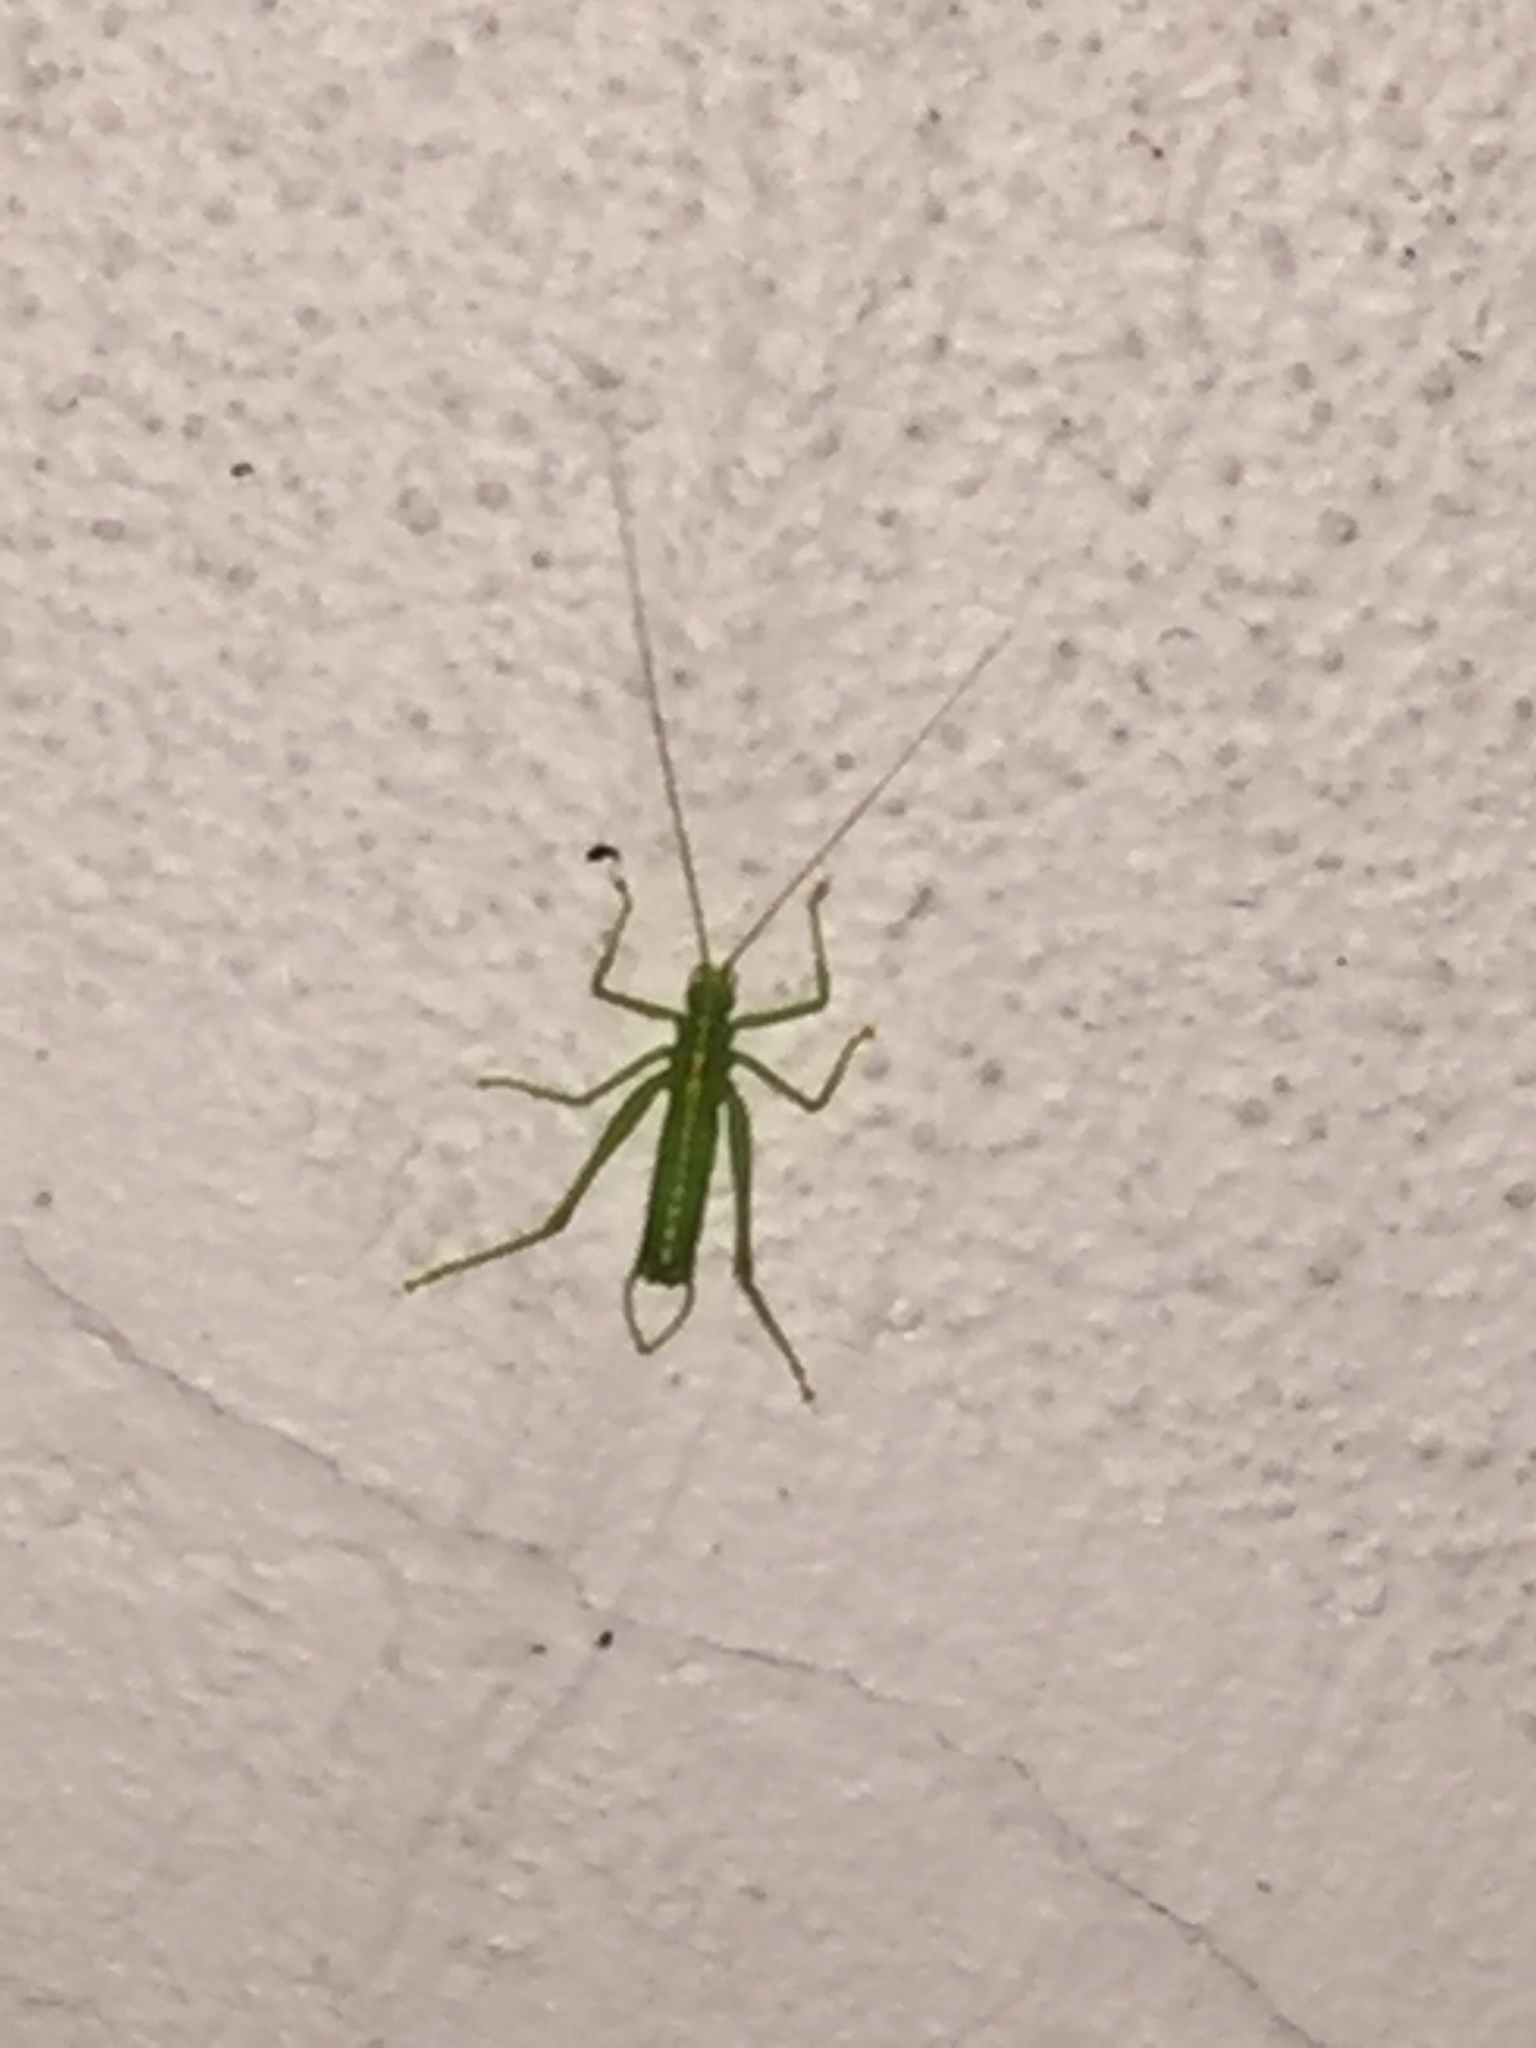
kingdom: Animalia
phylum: Arthropoda
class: Insecta
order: Orthoptera
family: Tettigoniidae
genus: Meconema
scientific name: Meconema meridionale
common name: Southern oak bush-cricket
